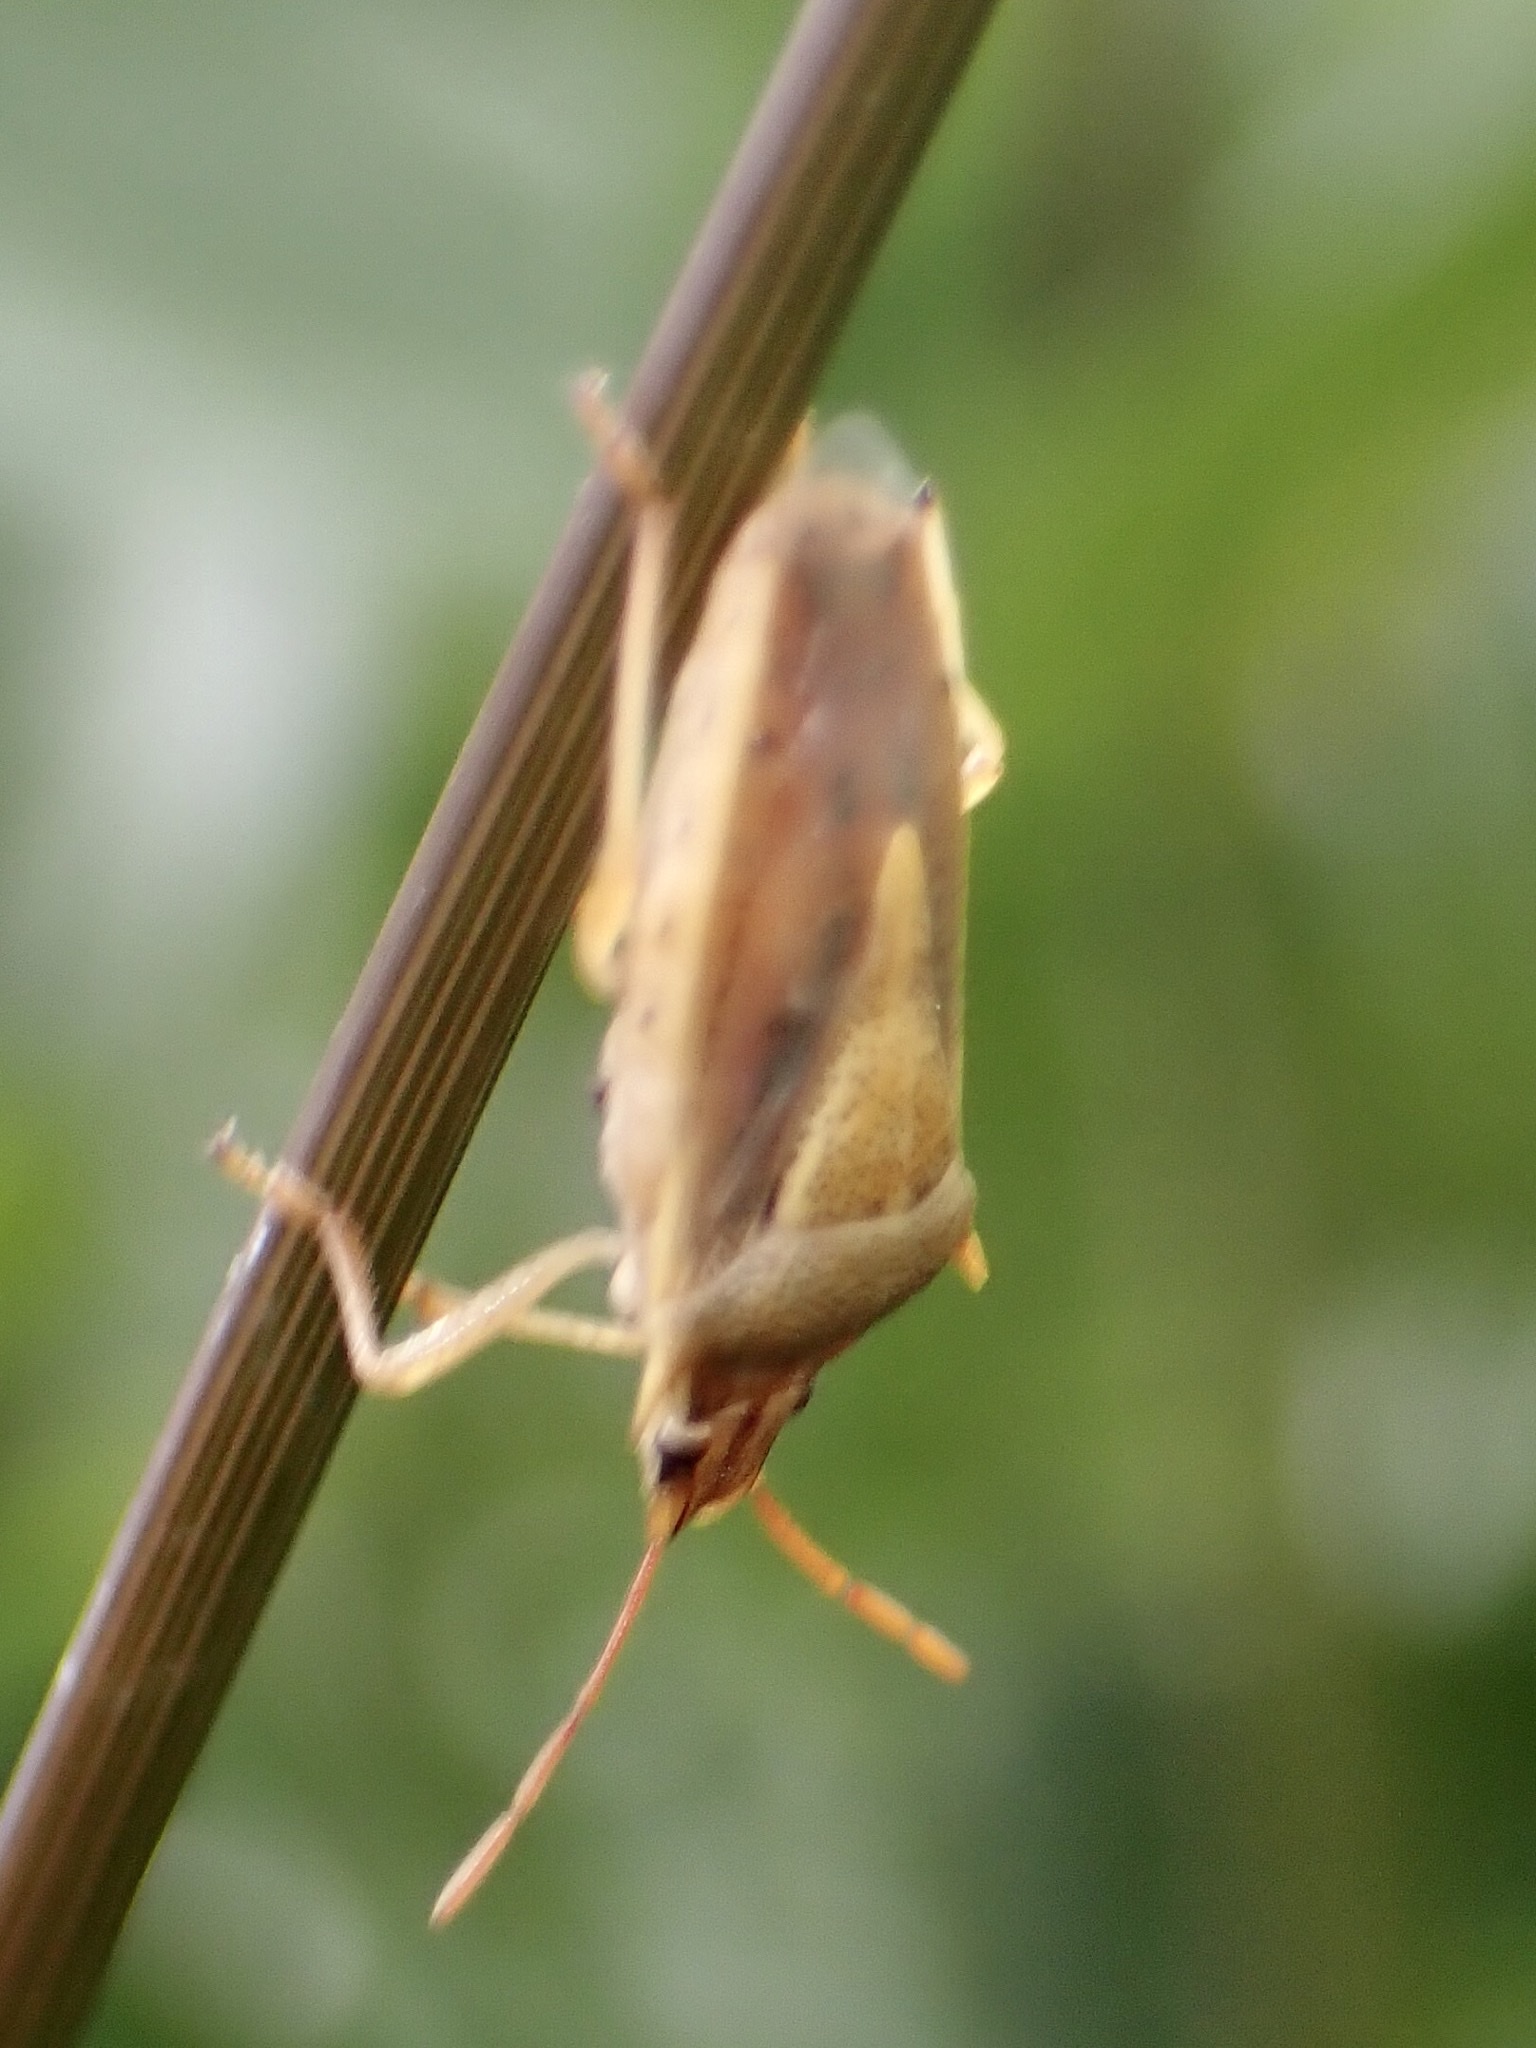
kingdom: Animalia
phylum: Arthropoda
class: Insecta
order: Hemiptera
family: Pentatomidae
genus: Oebalus
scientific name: Oebalus pugnax
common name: Rice stink bug
